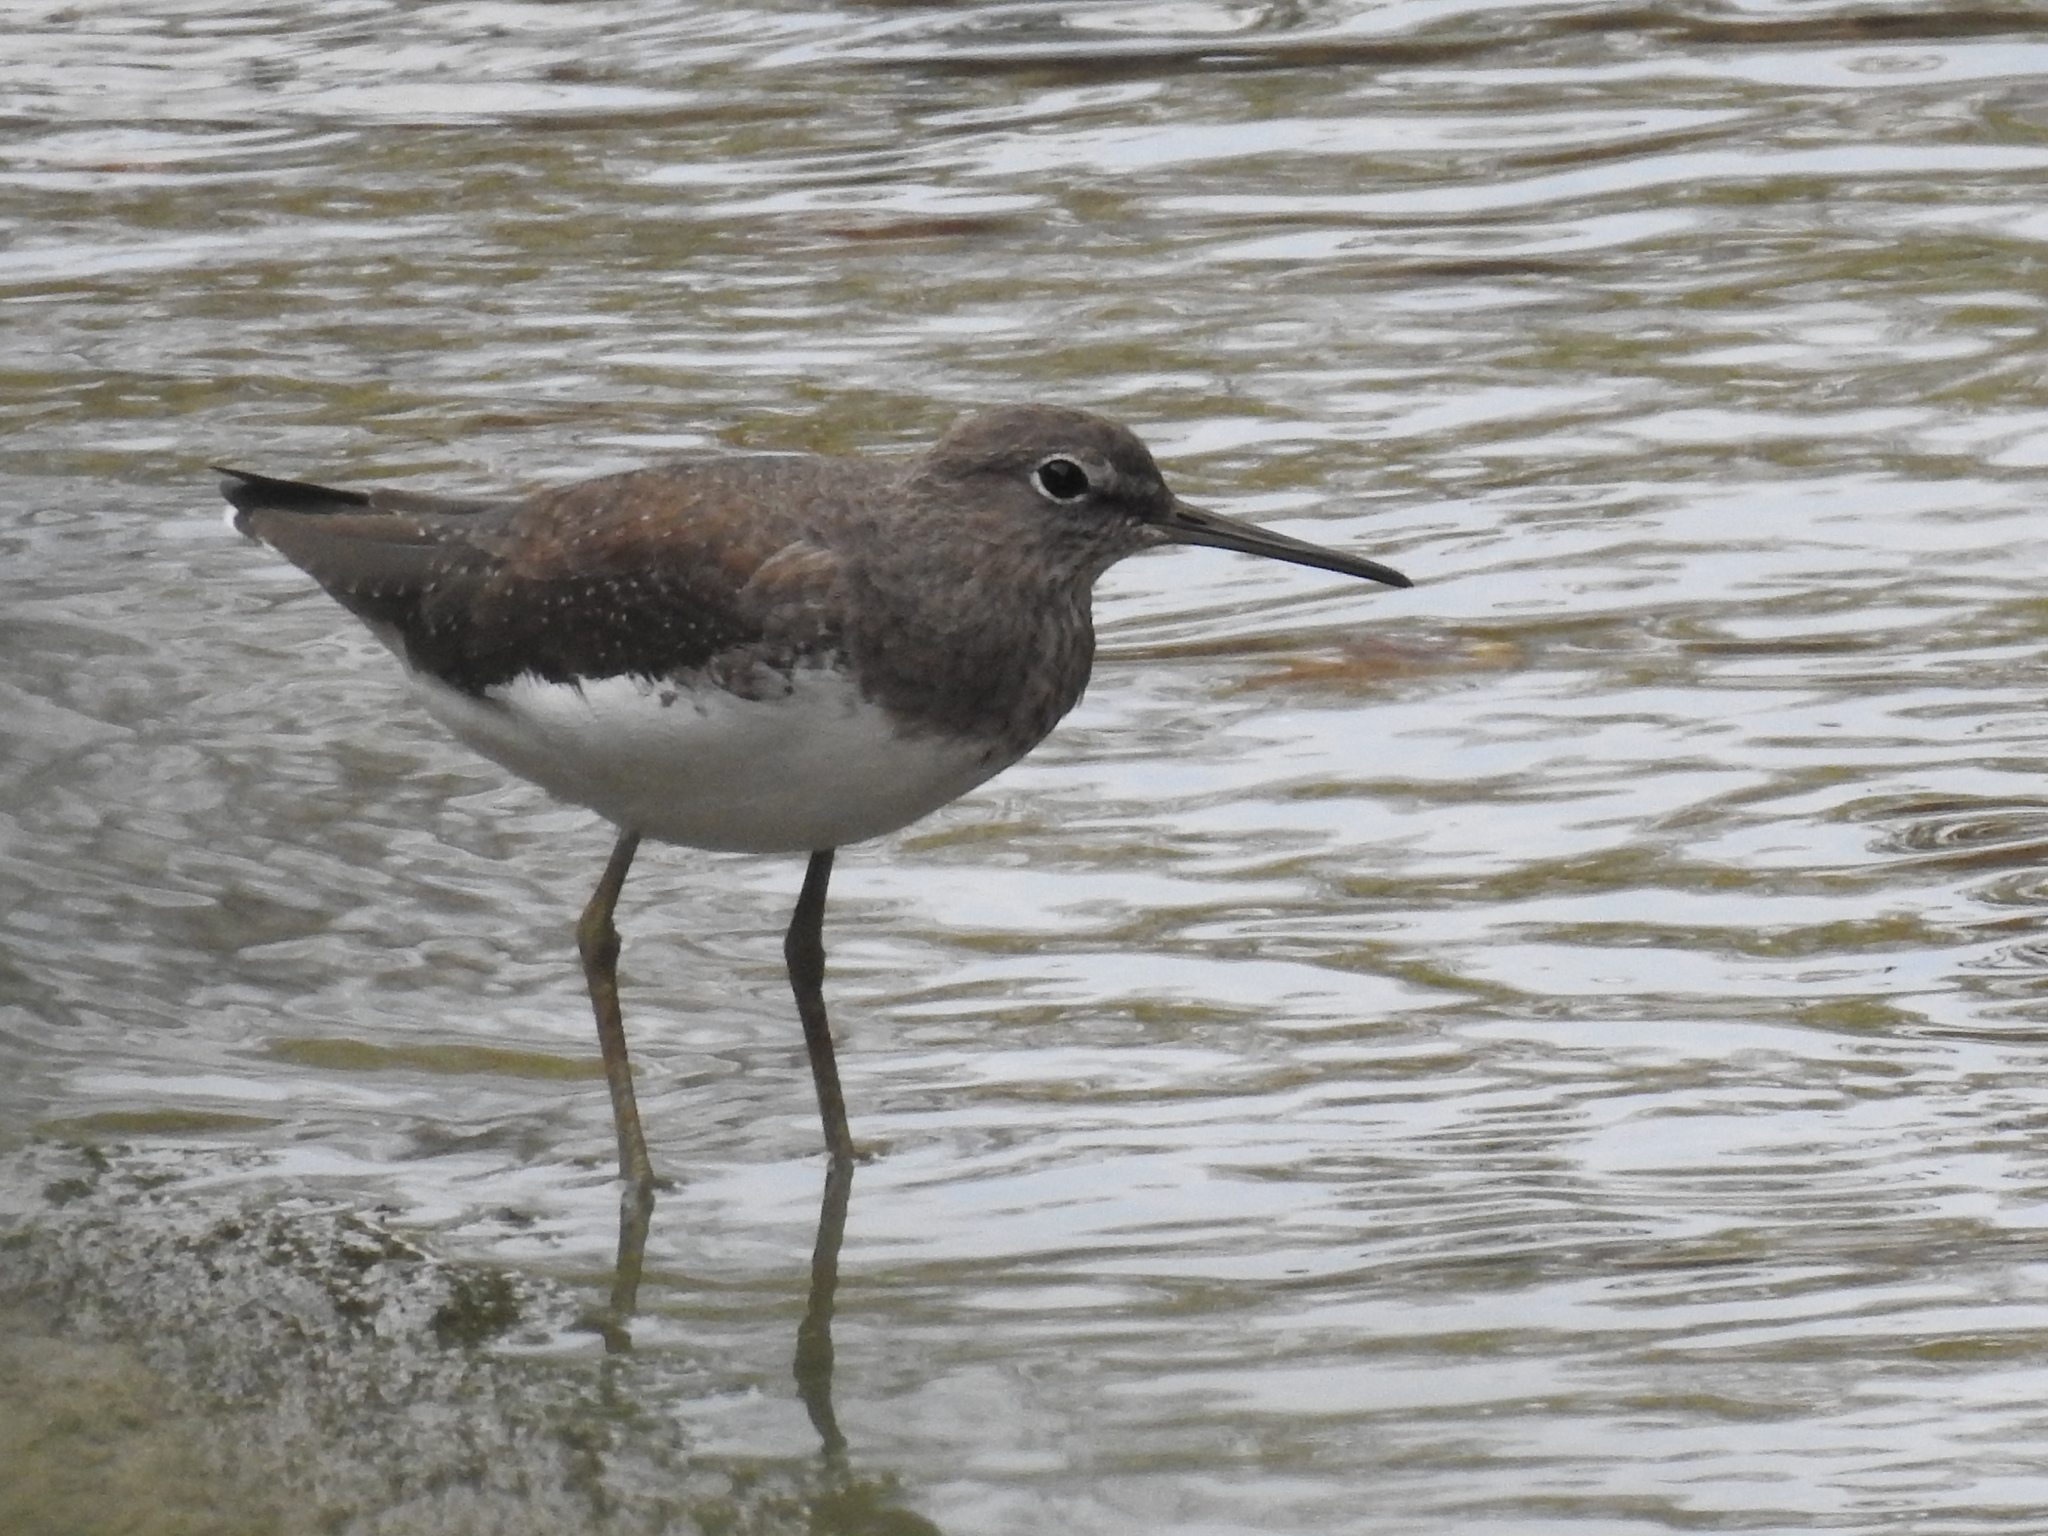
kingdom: Animalia
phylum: Chordata
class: Aves
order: Charadriiformes
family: Scolopacidae
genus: Tringa
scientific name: Tringa ochropus
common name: Green sandpiper
